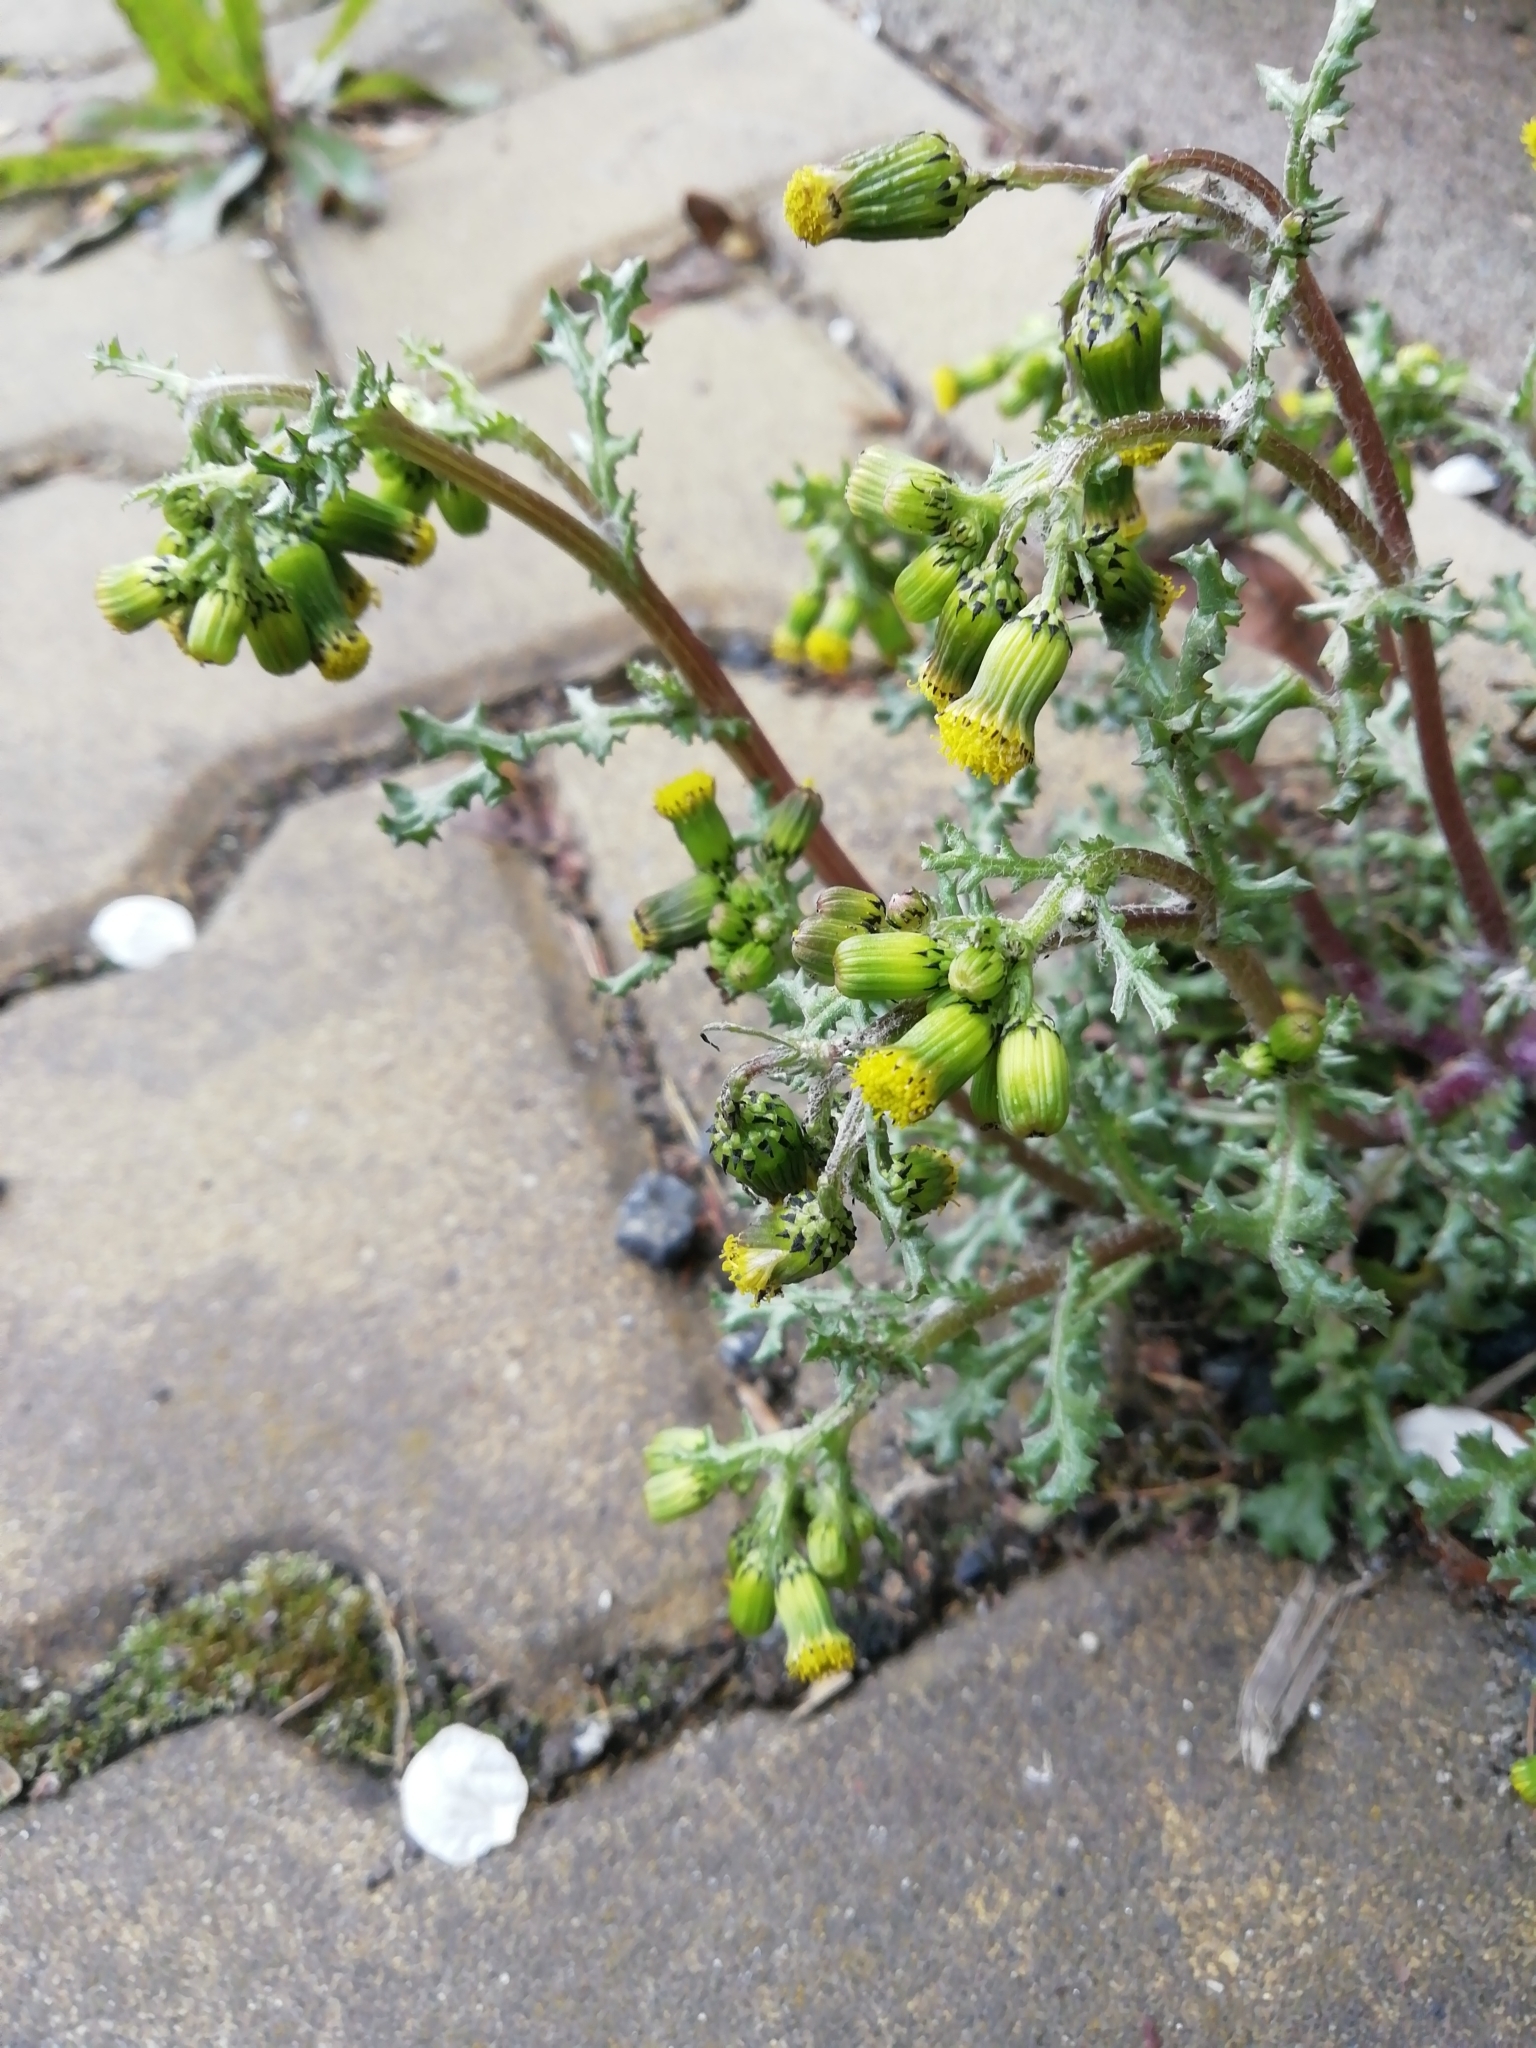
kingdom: Plantae
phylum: Tracheophyta
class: Magnoliopsida
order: Asterales
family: Asteraceae
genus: Senecio
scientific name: Senecio vulgaris
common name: Old-man-in-the-spring
